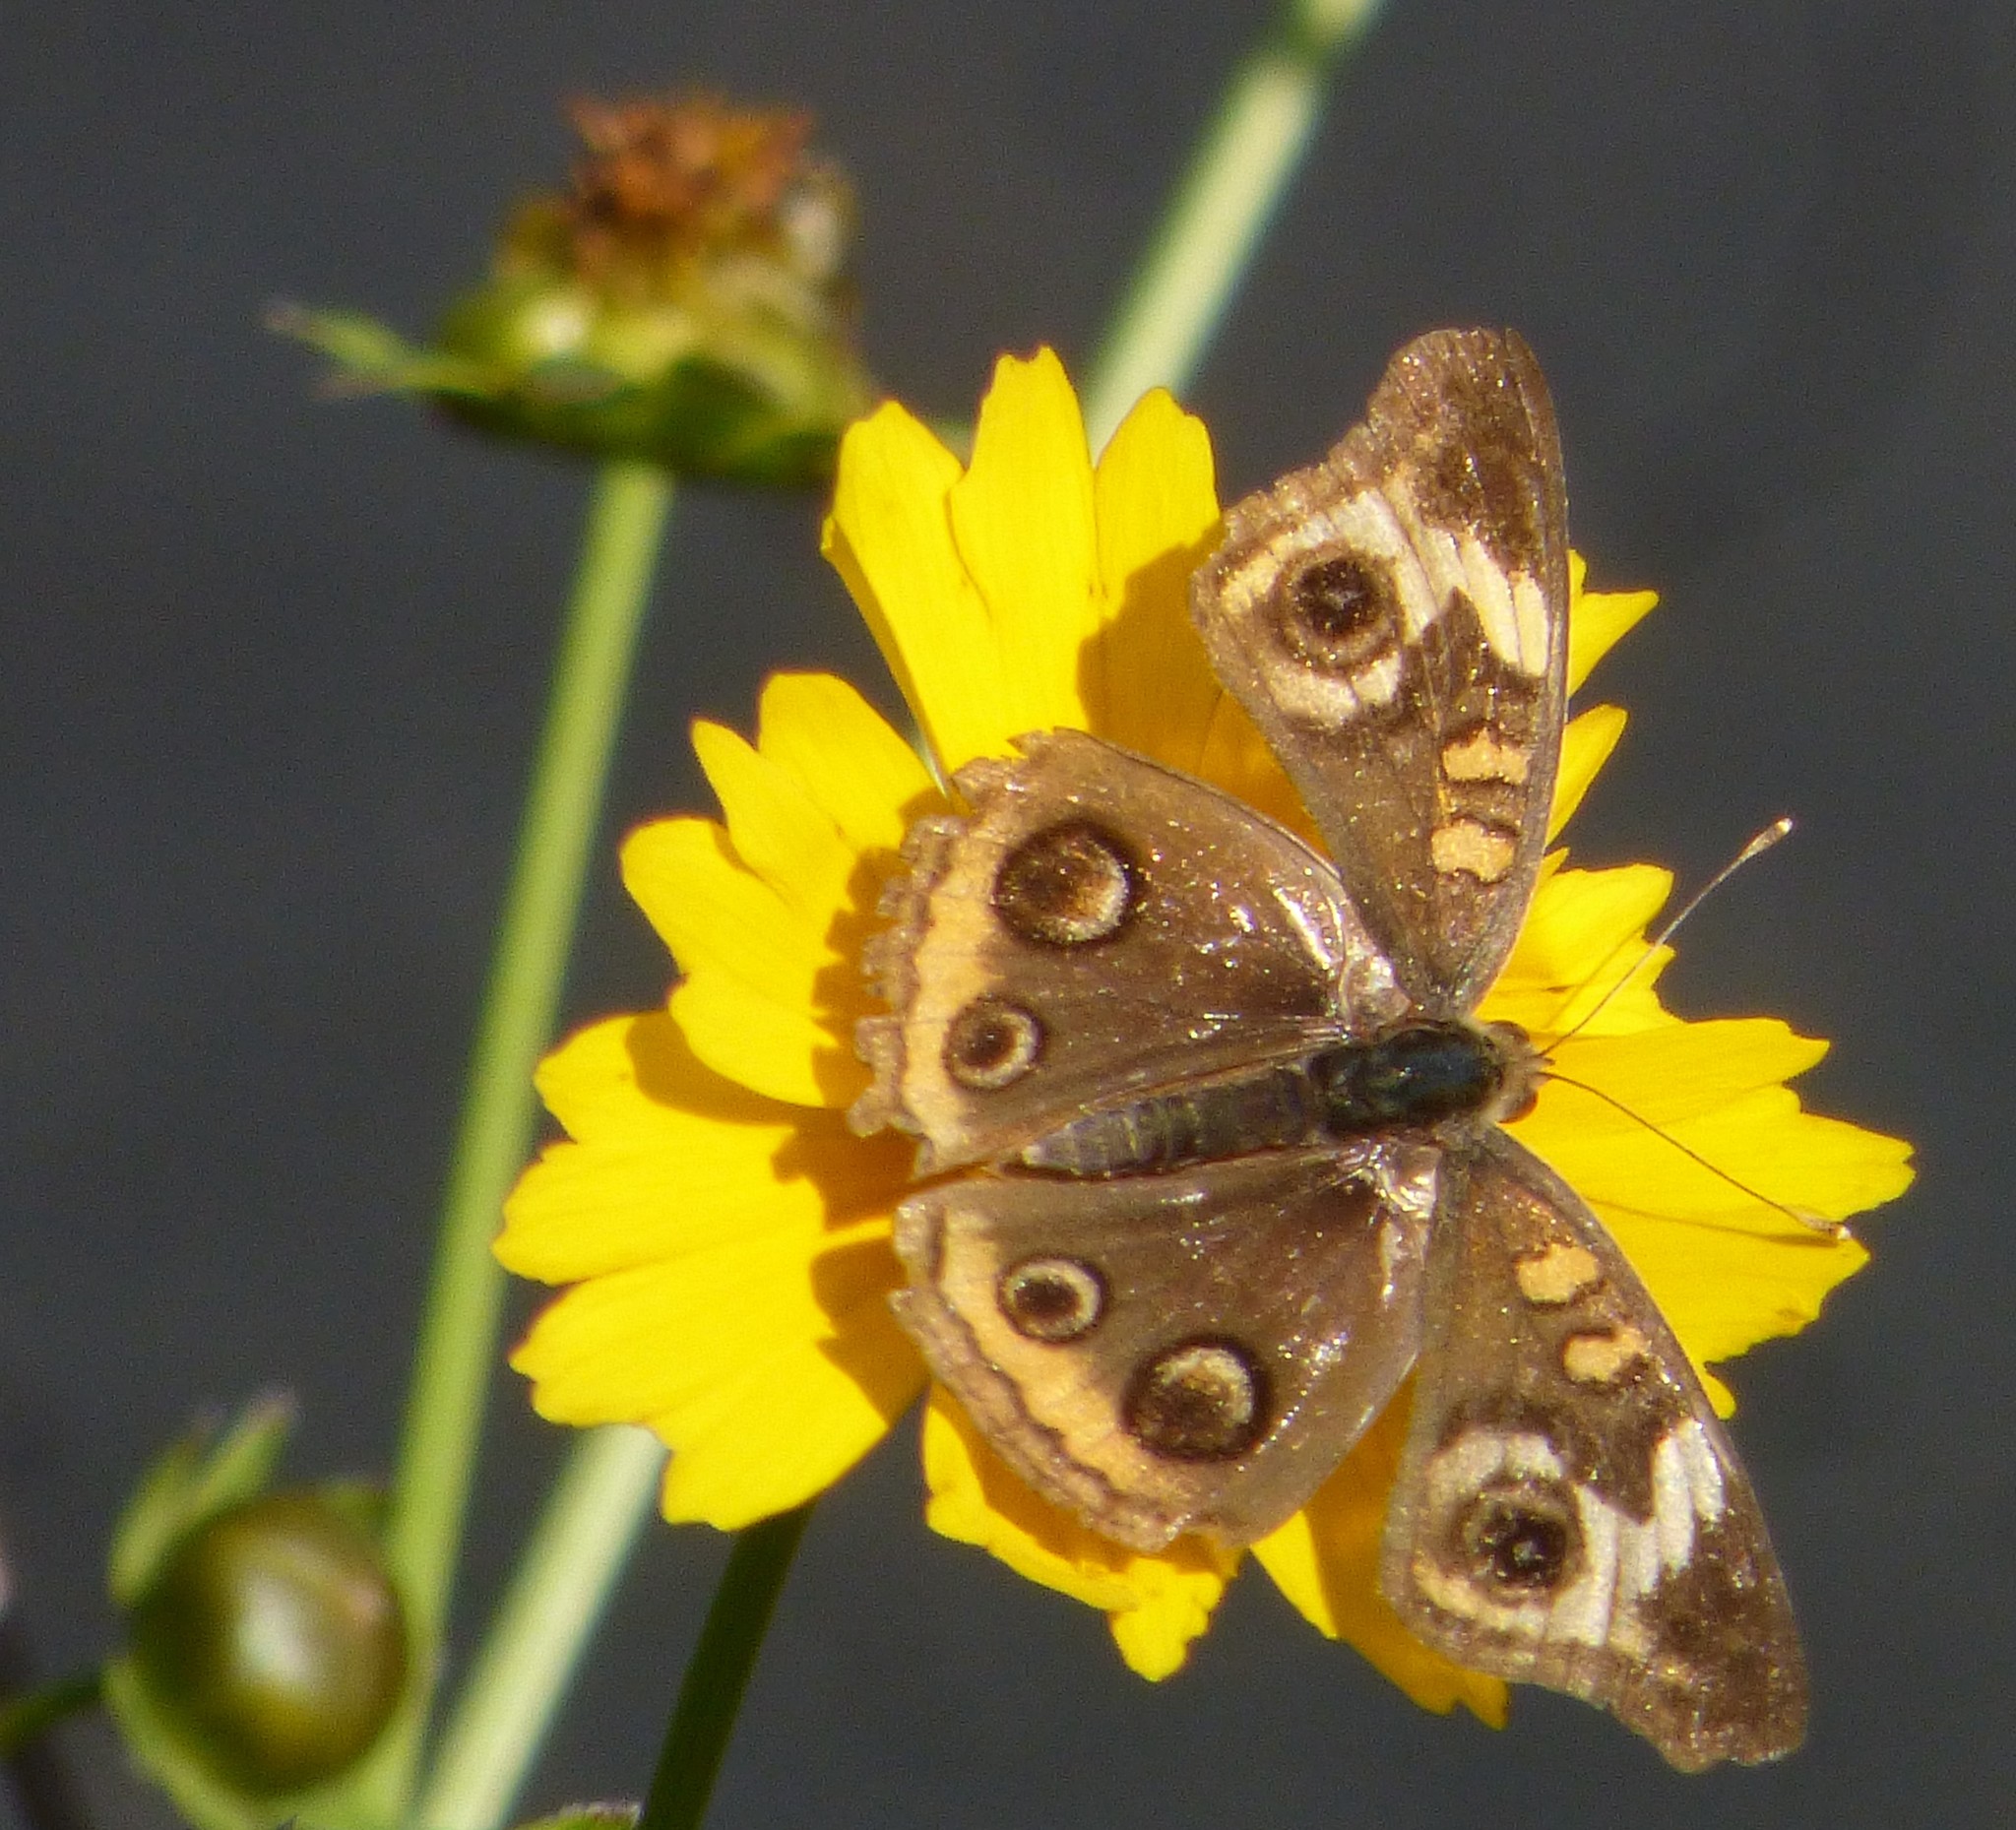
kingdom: Animalia
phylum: Arthropoda
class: Insecta
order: Lepidoptera
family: Nymphalidae
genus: Junonia
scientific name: Junonia coenia
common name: Common buckeye
